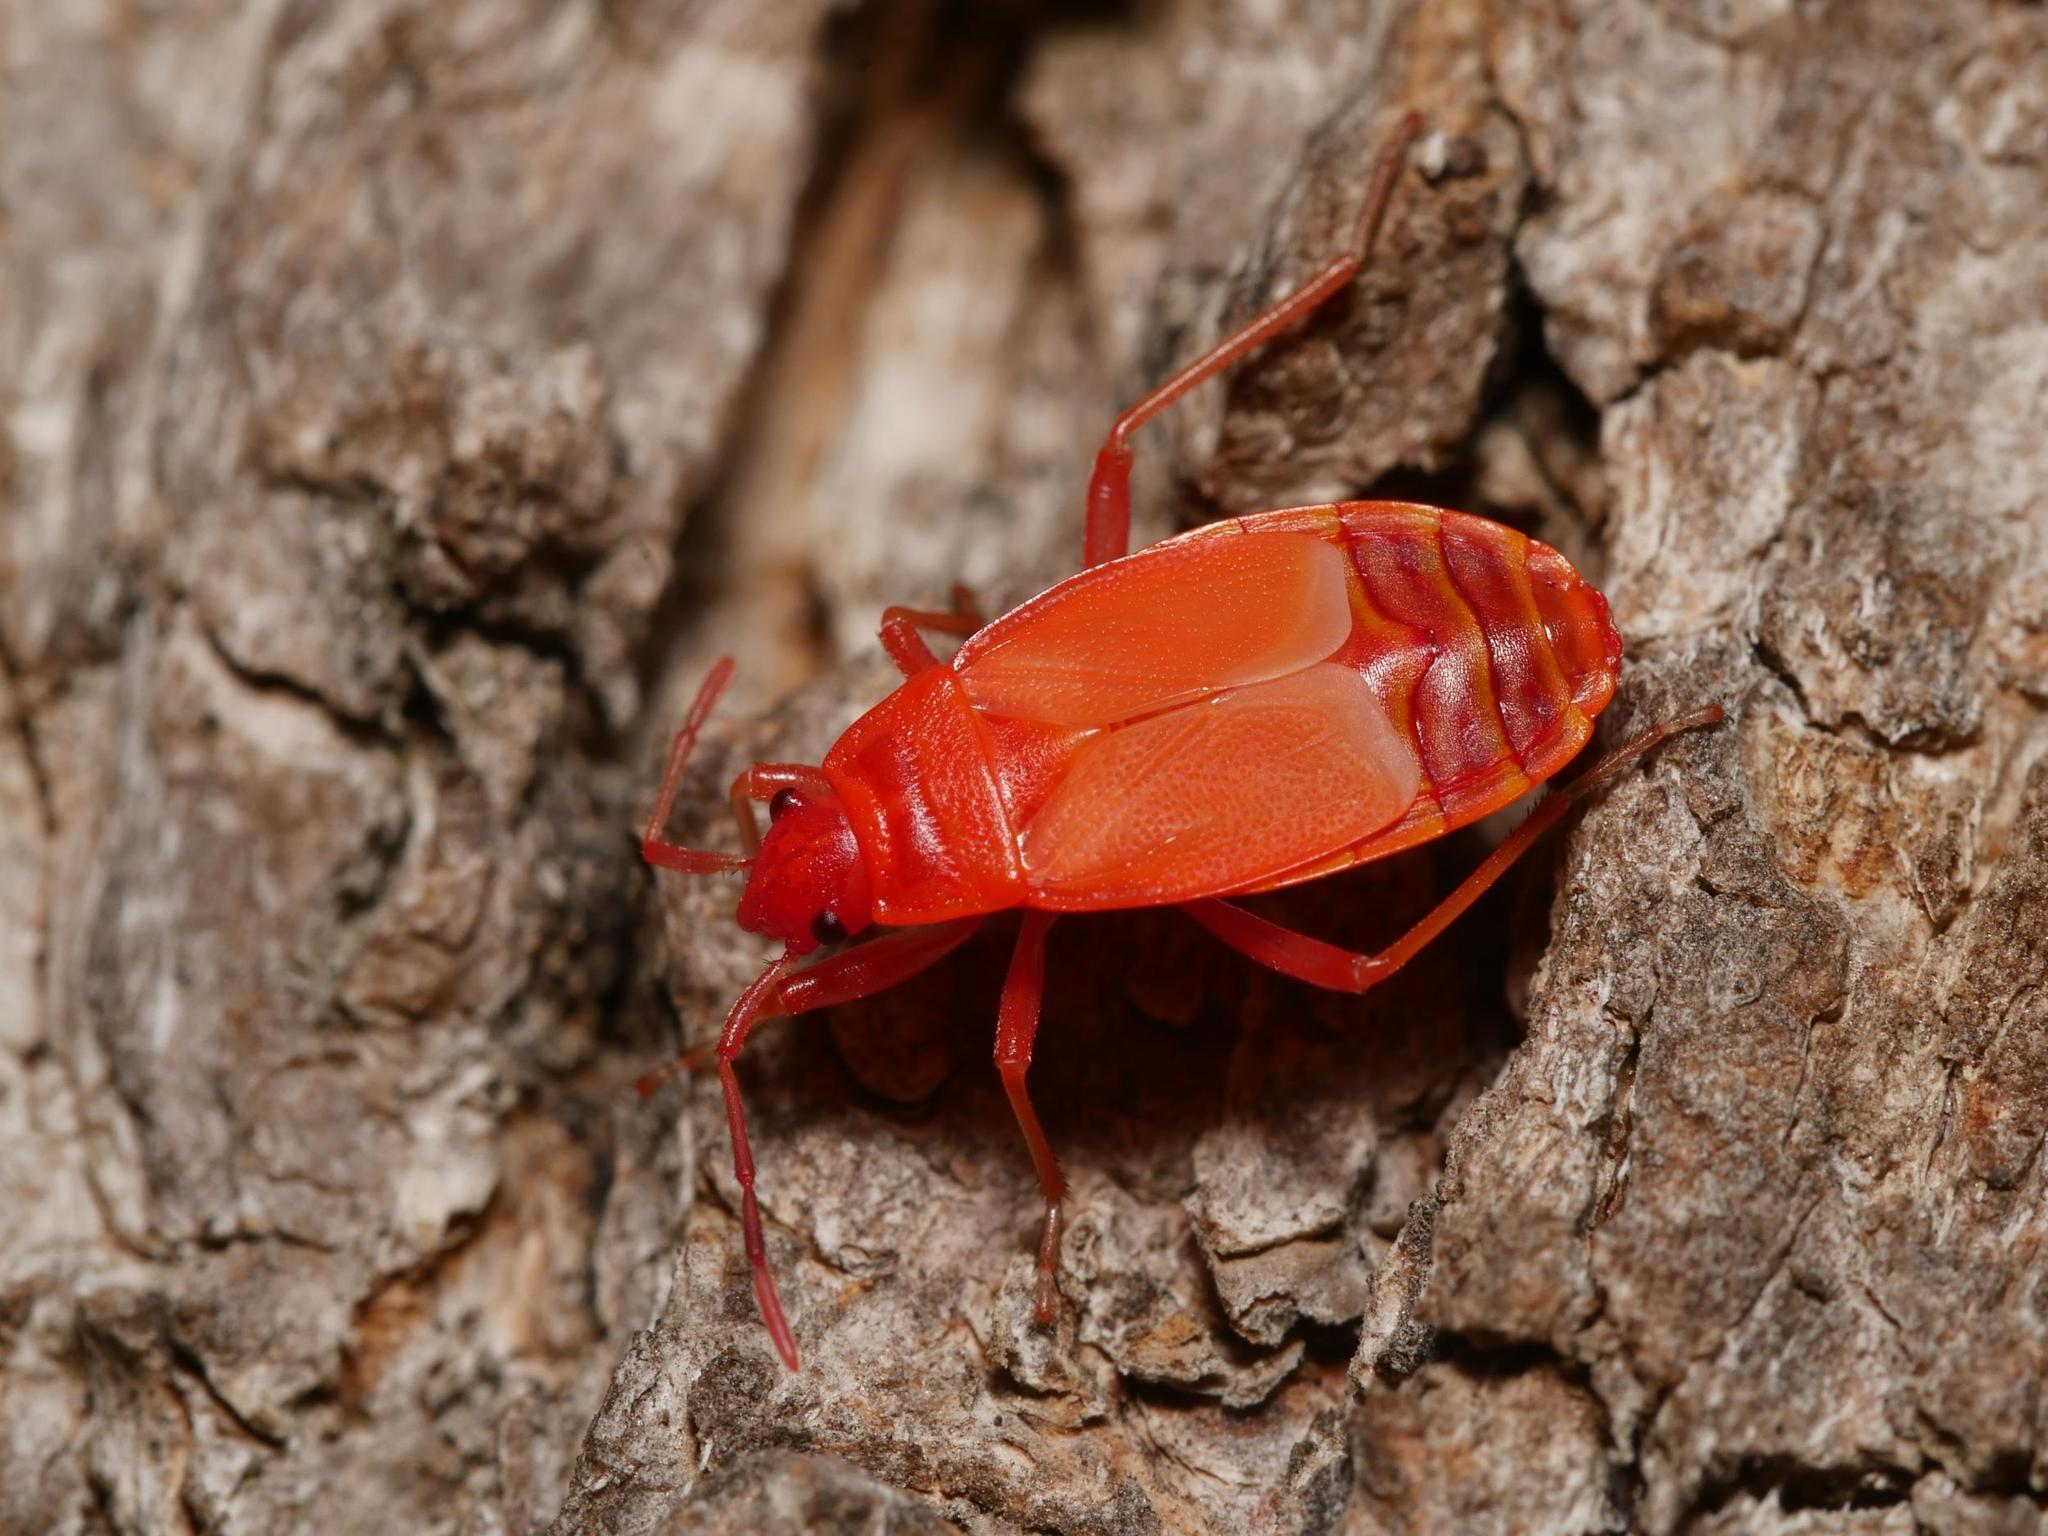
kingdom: Animalia
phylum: Arthropoda
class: Insecta
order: Hemiptera
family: Pyrrhocoridae
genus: Pyrrhocoris
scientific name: Pyrrhocoris apterus
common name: Firebug
